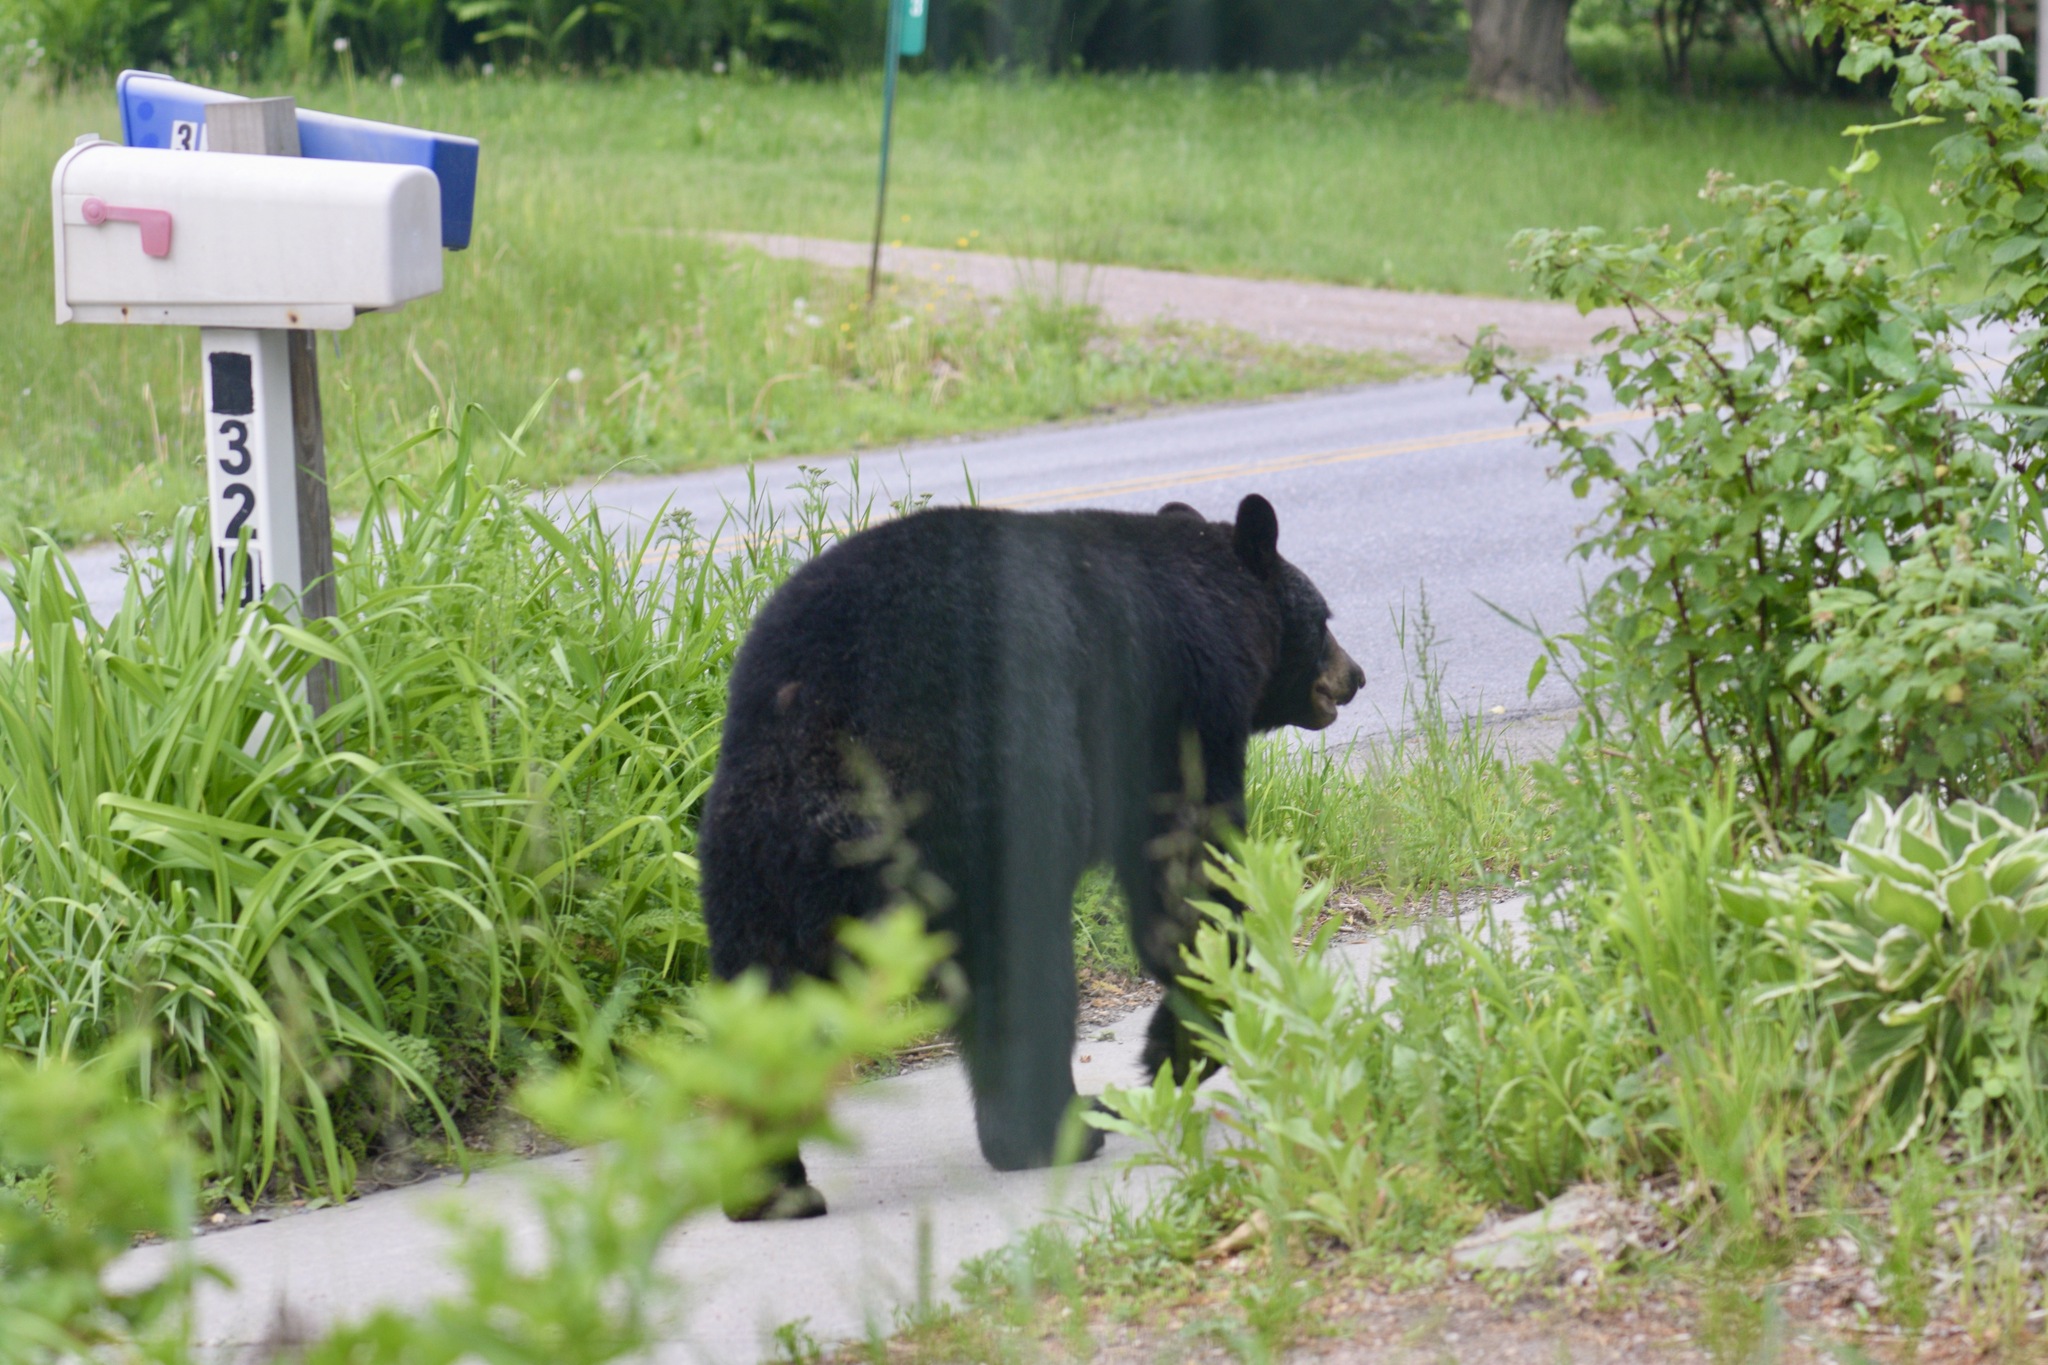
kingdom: Animalia
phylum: Chordata
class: Mammalia
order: Carnivora
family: Ursidae
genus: Ursus
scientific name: Ursus americanus
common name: American black bear
